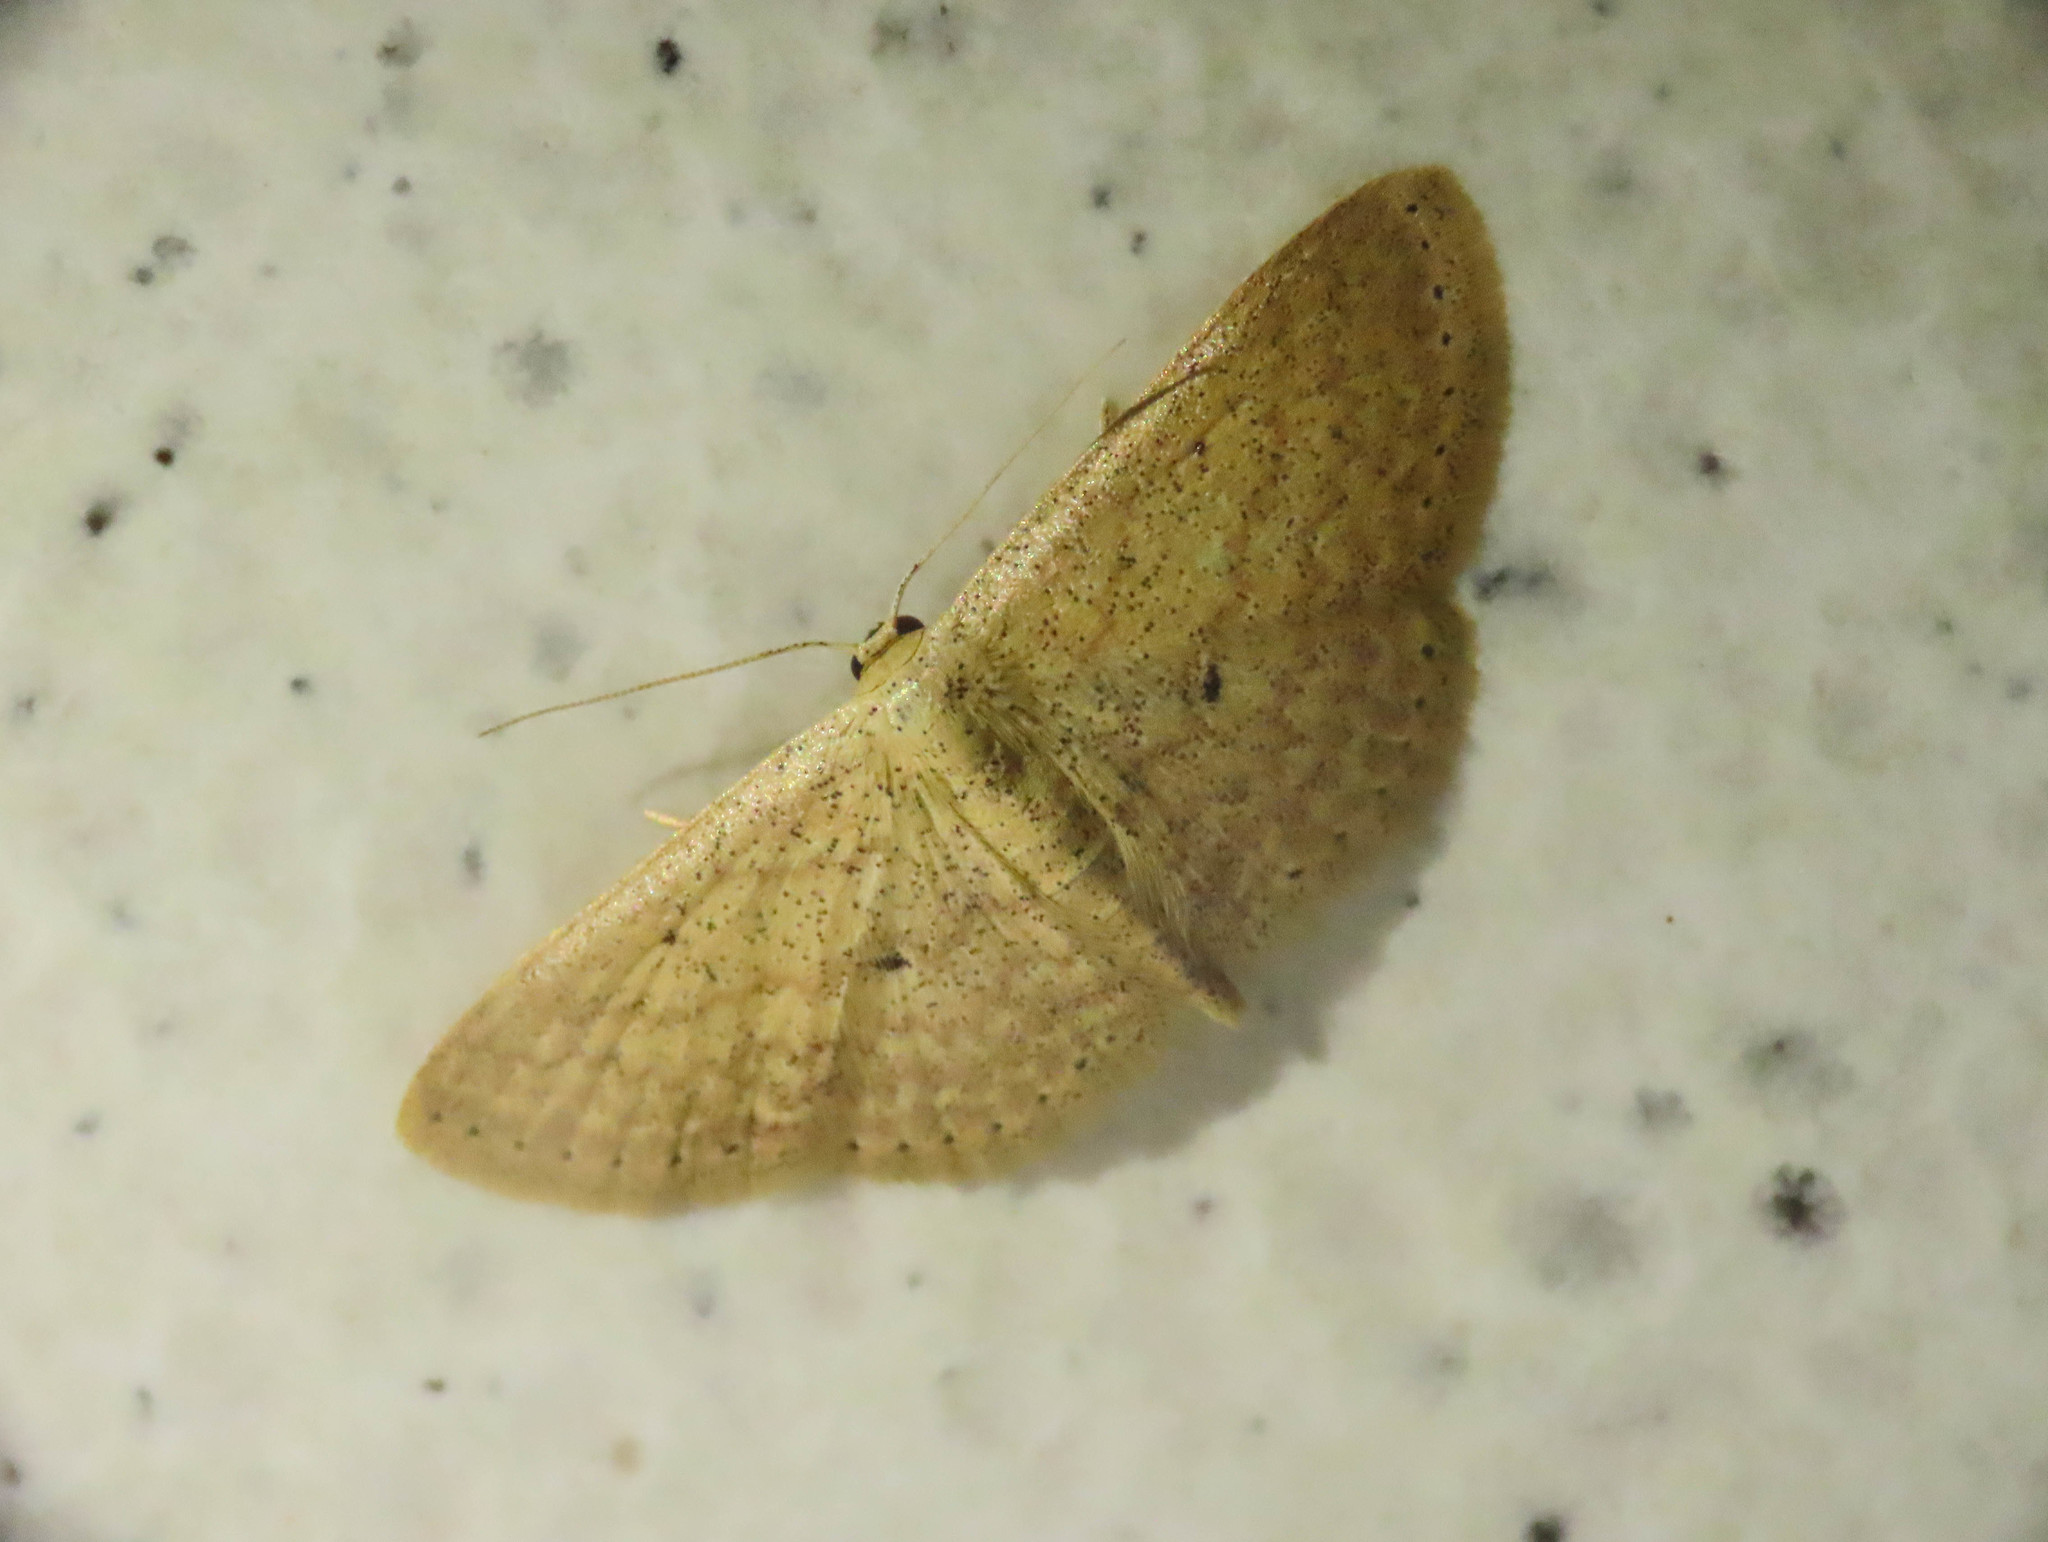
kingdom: Animalia
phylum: Arthropoda
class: Insecta
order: Lepidoptera
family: Geometridae
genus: Scopula
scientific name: Scopula minorata
